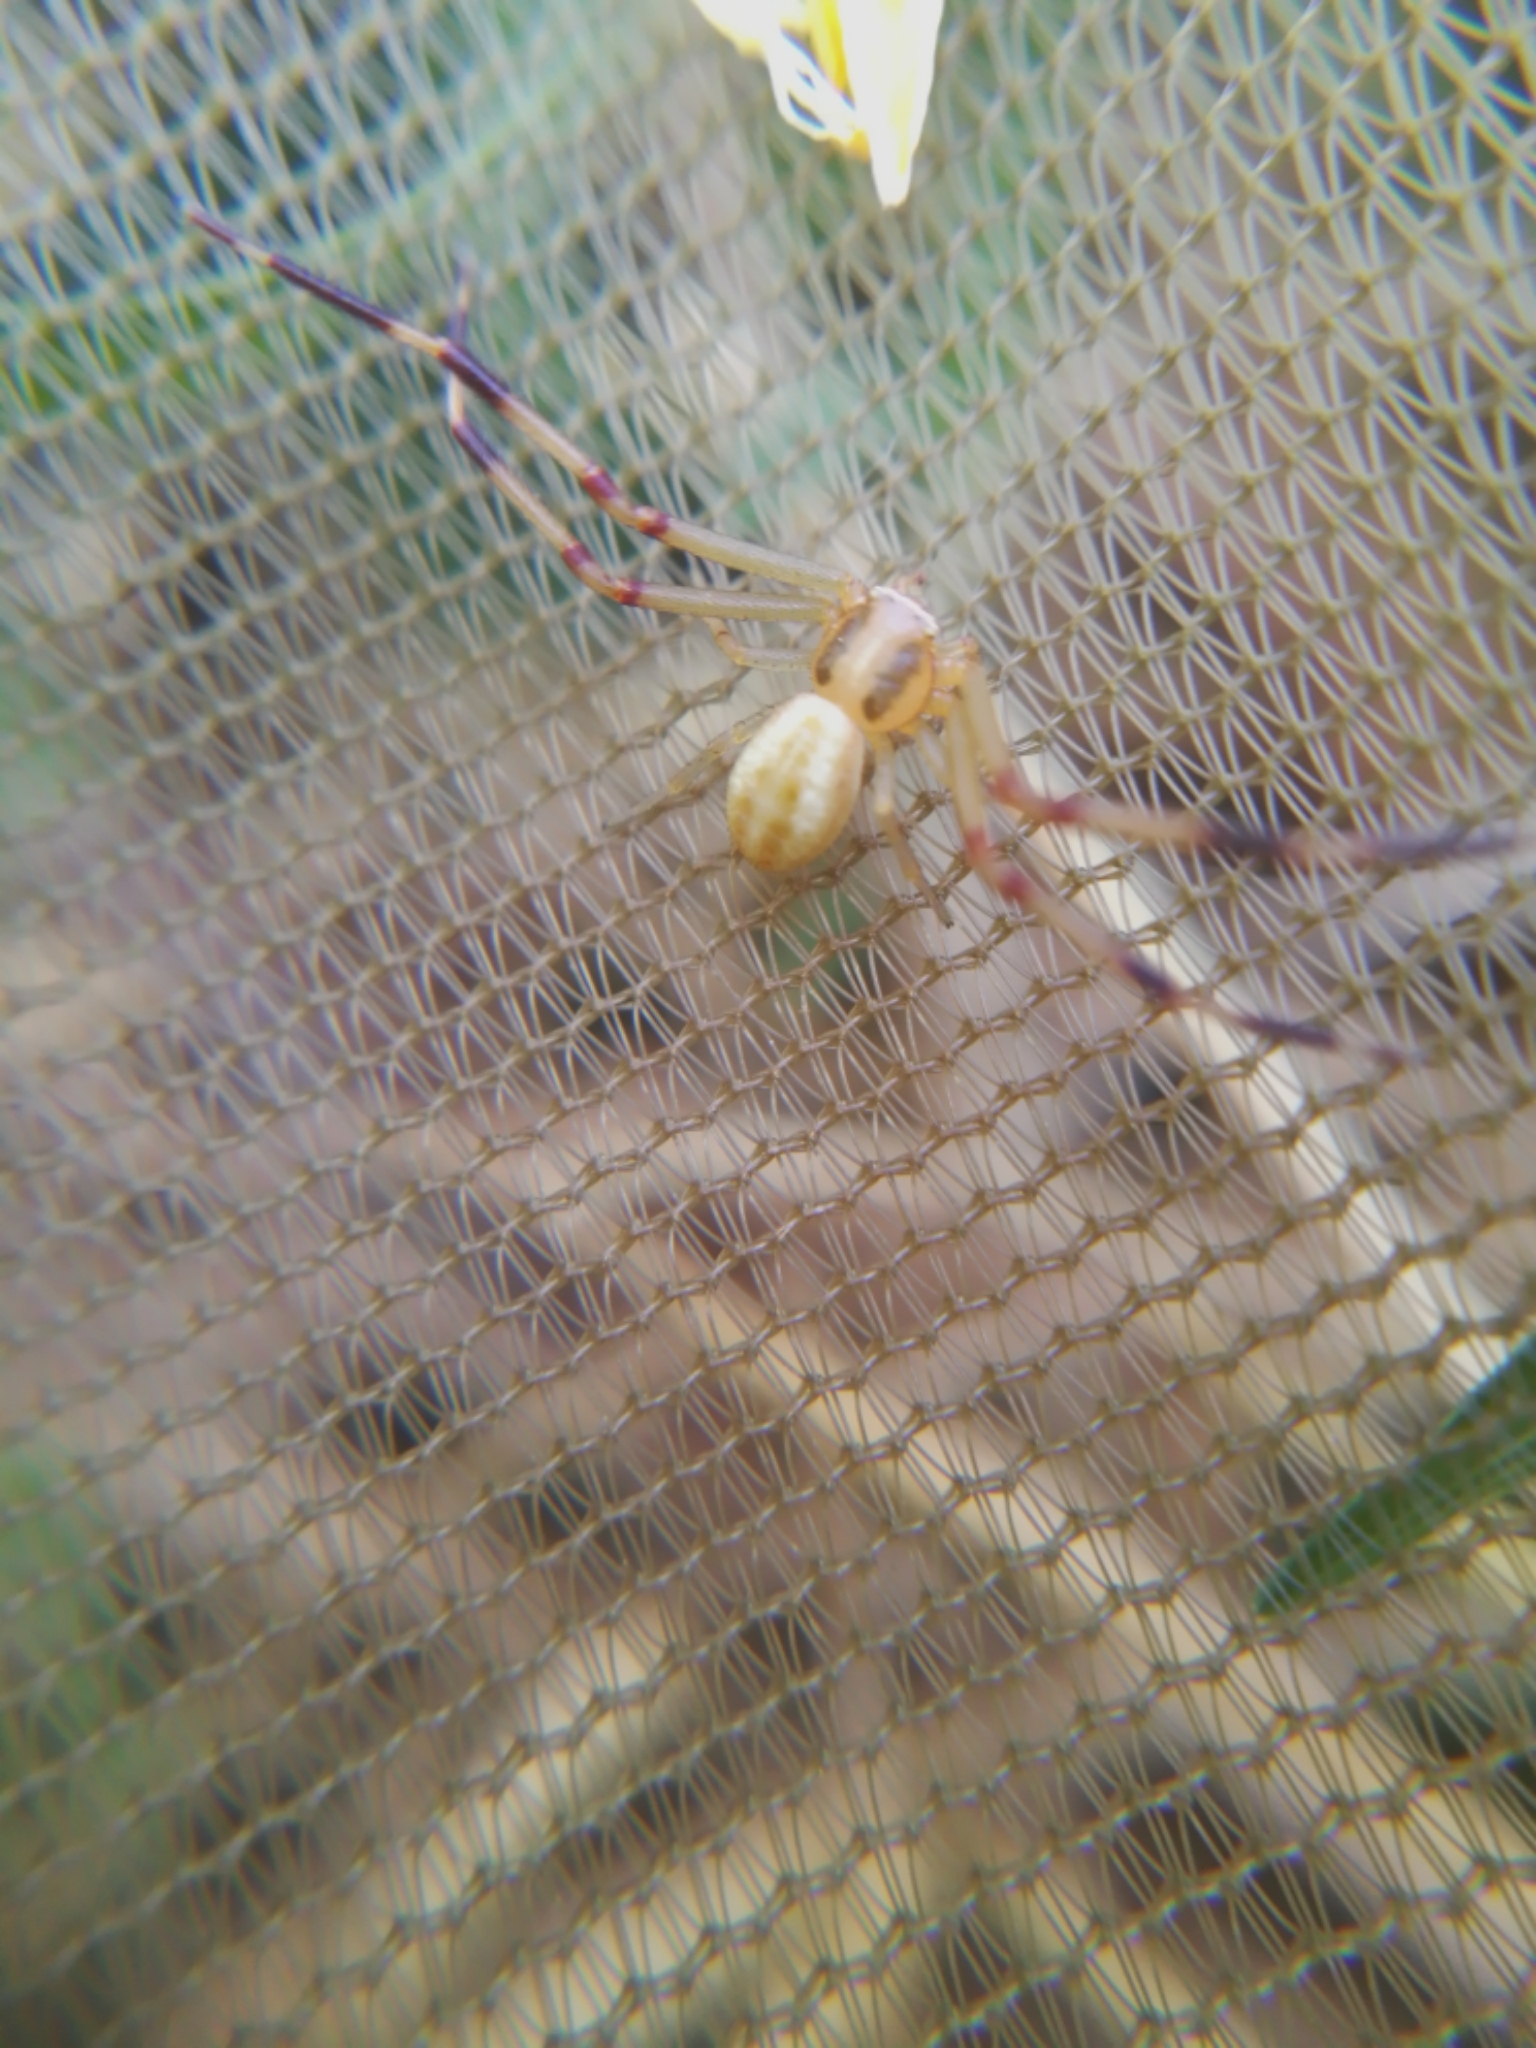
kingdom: Animalia
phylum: Arthropoda
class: Arachnida
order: Araneae
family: Thomisidae
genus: Runcinia
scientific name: Runcinia grammica
